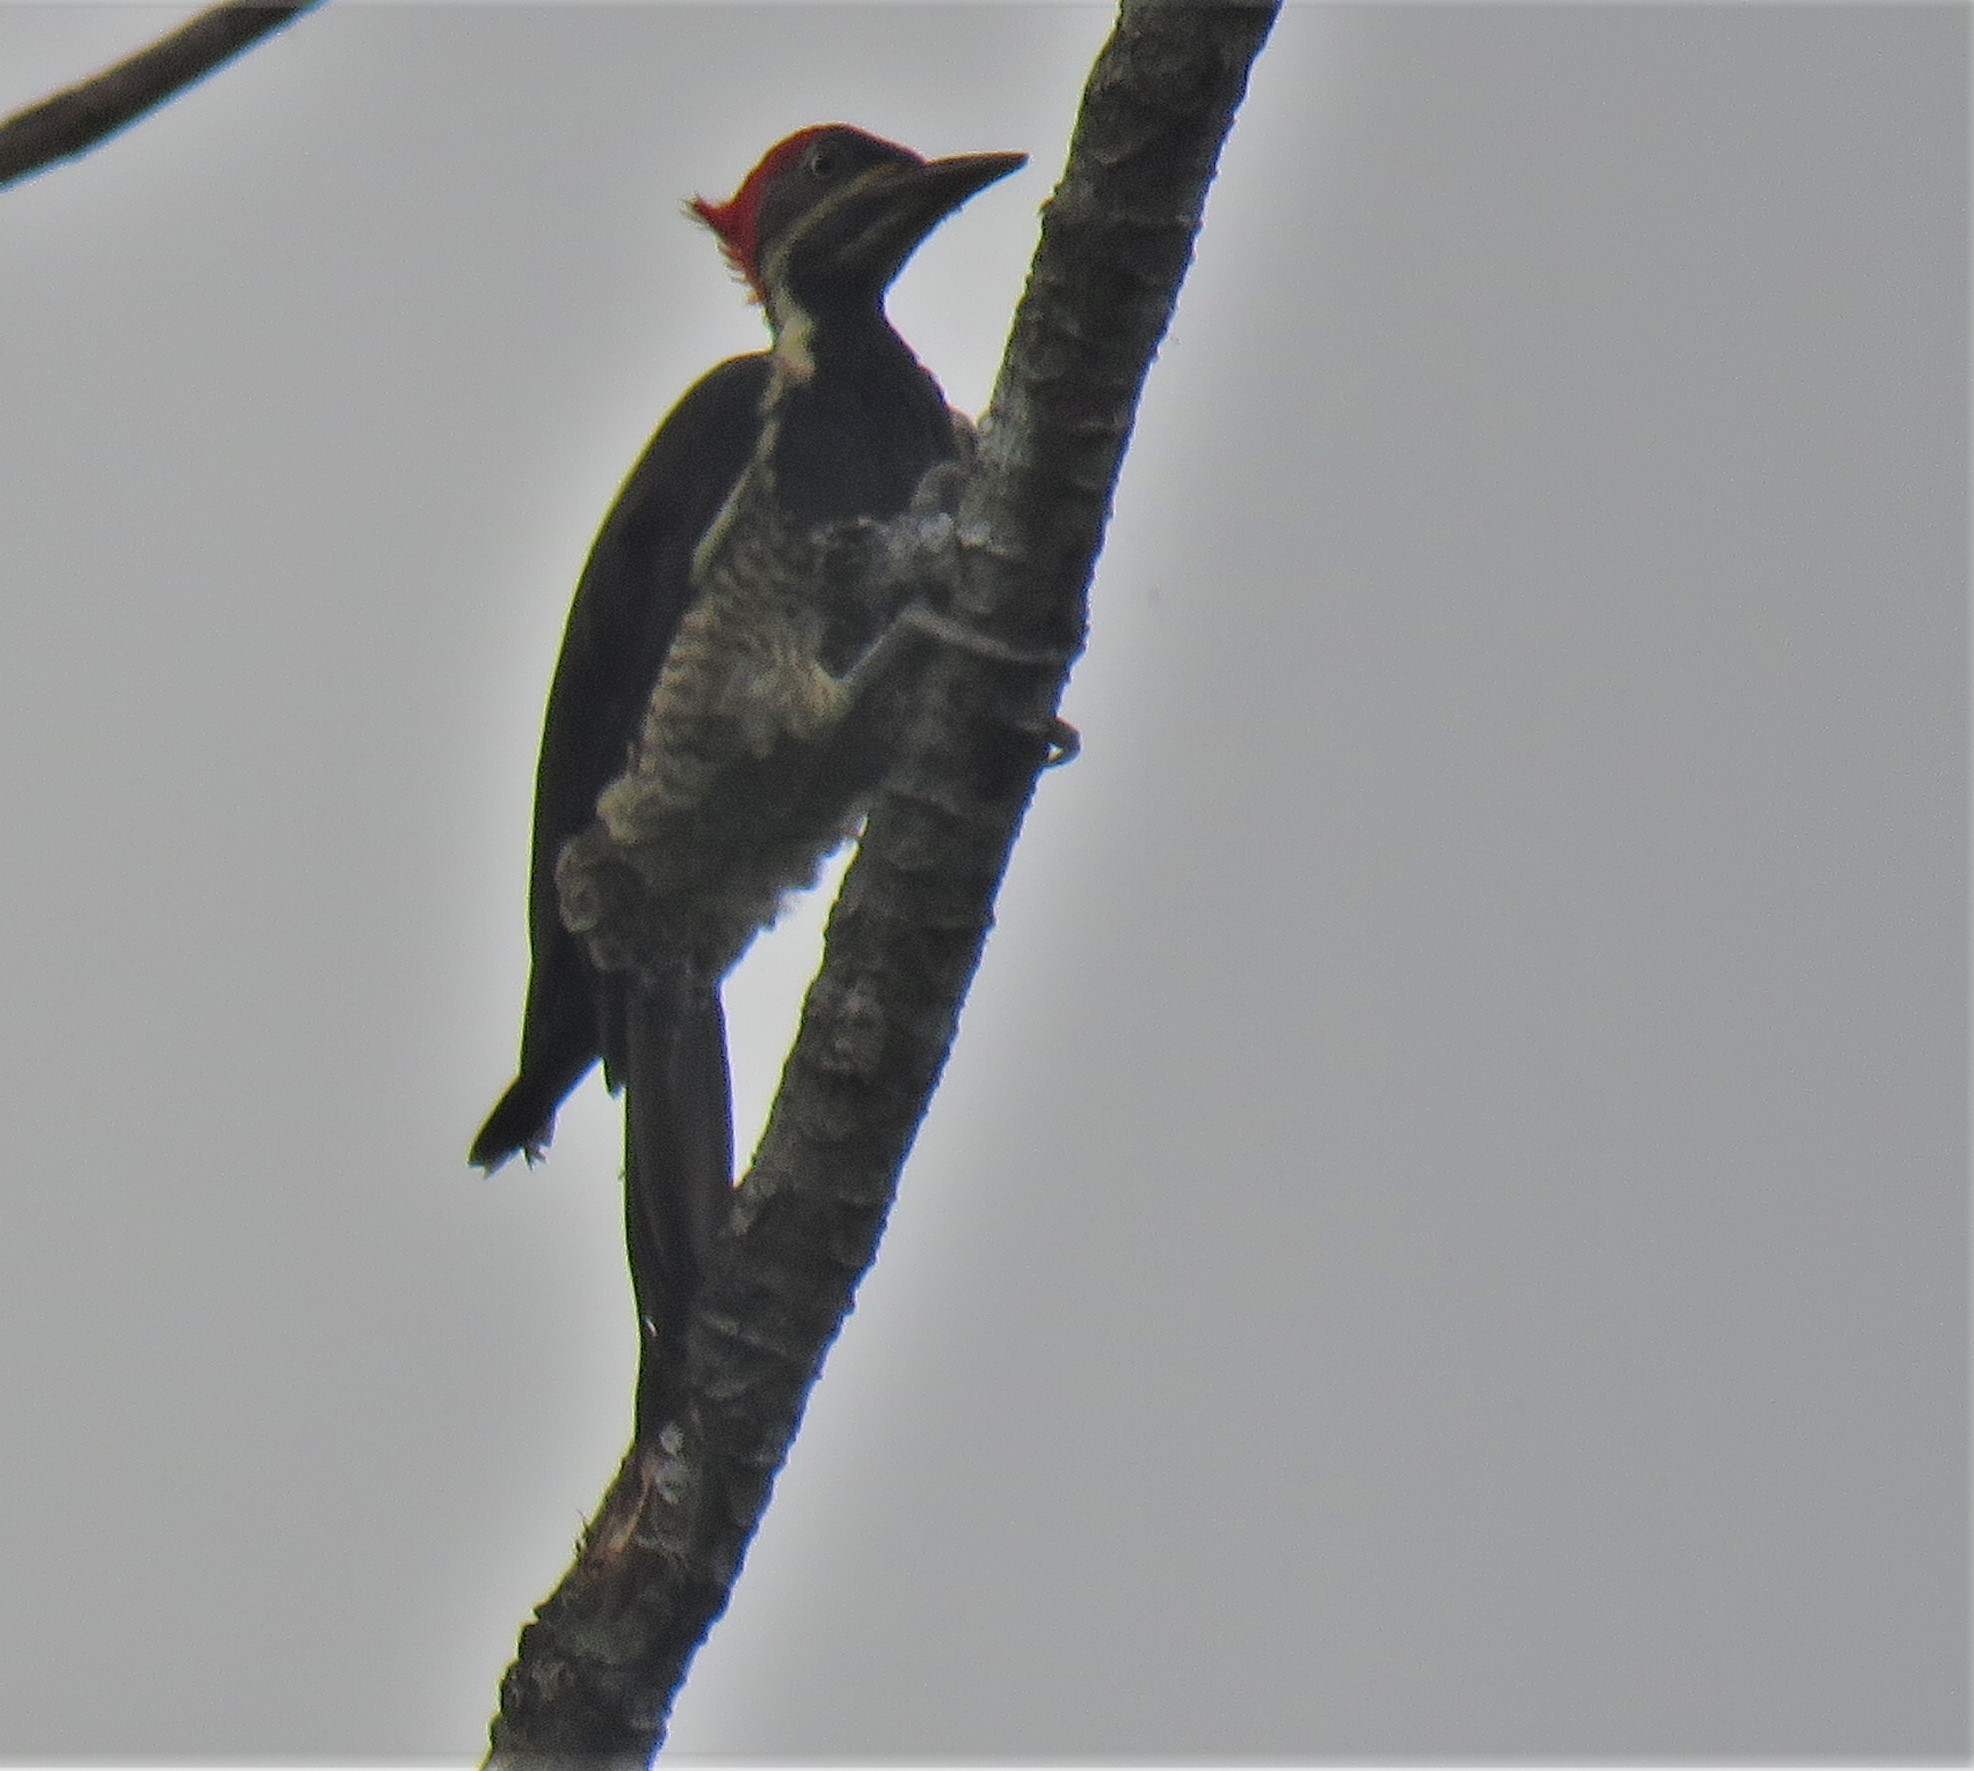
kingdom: Animalia
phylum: Chordata
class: Aves
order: Piciformes
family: Picidae
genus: Dryocopus
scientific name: Dryocopus lineatus
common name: Lineated woodpecker
